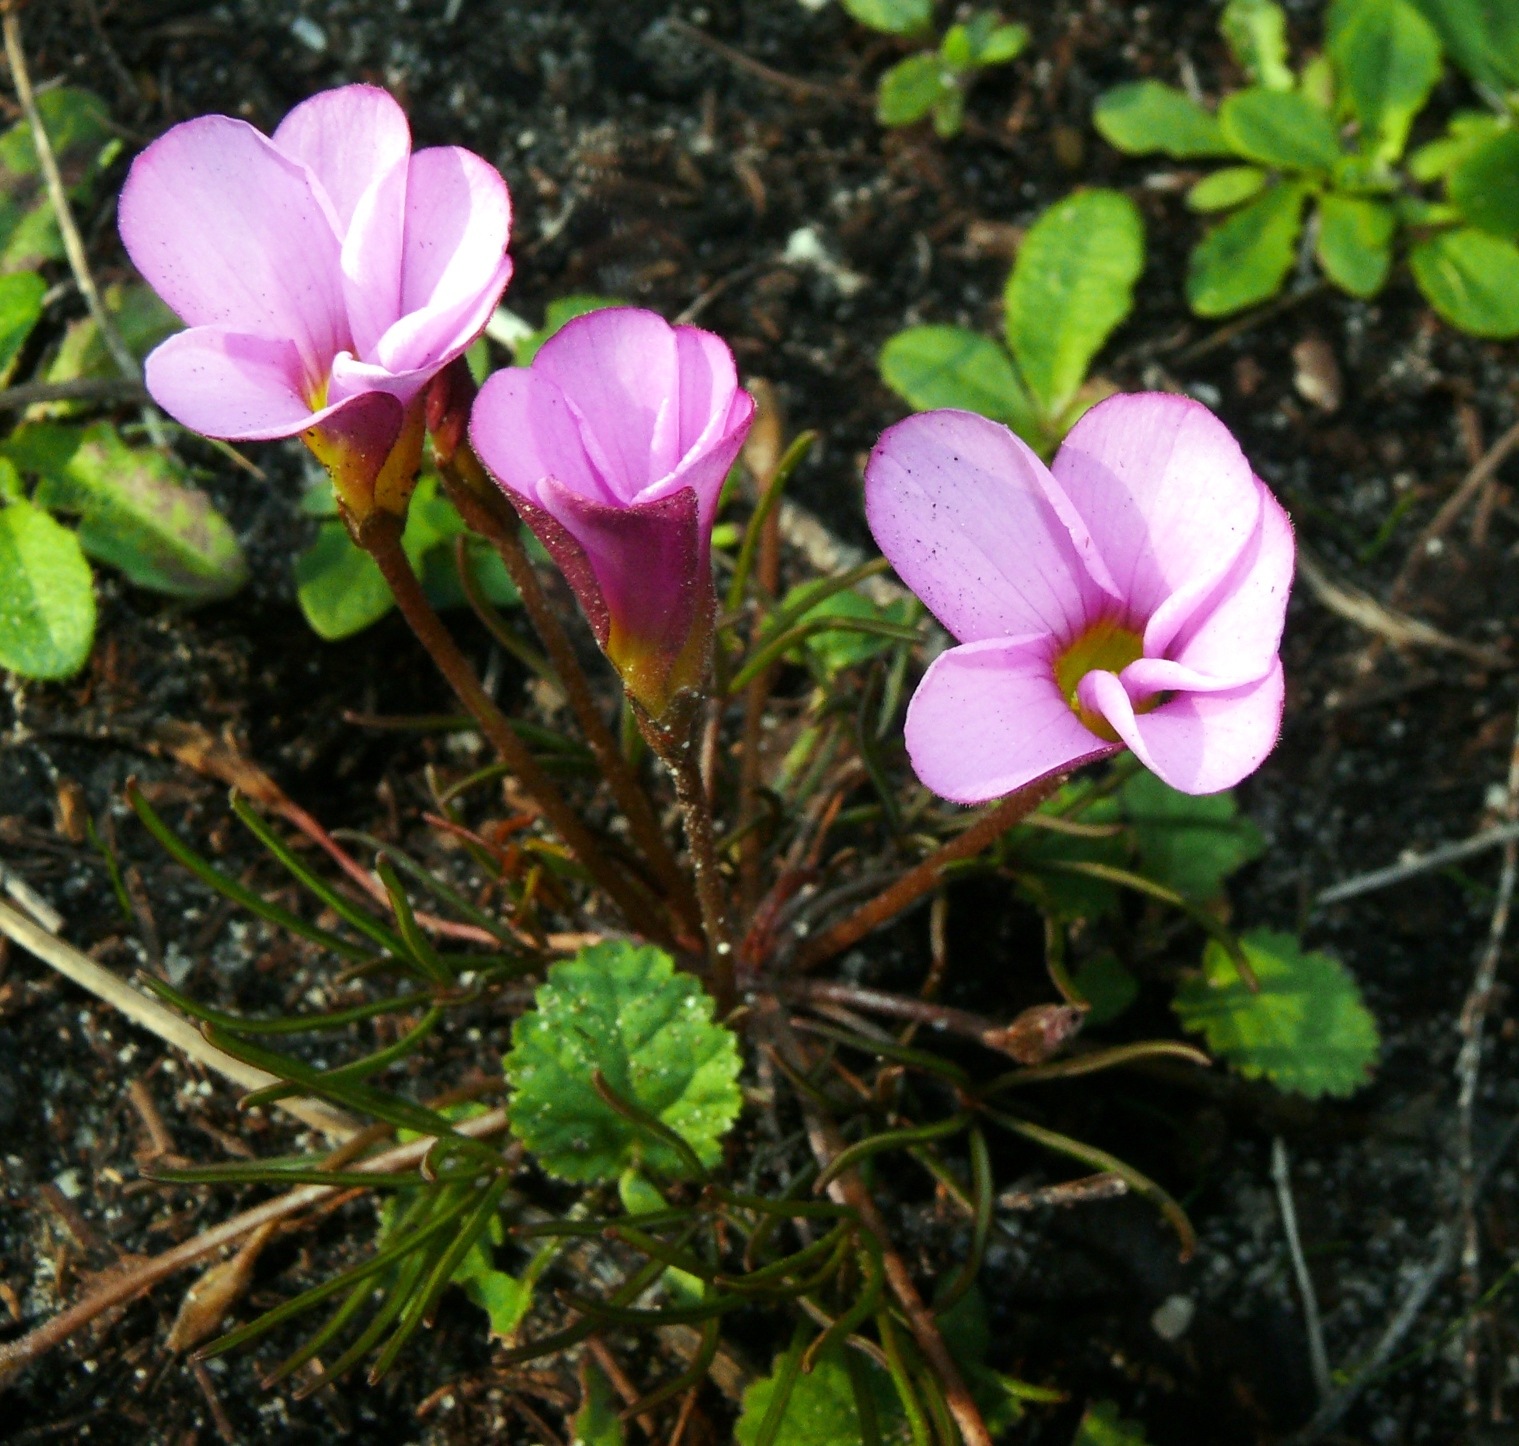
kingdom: Plantae
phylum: Tracheophyta
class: Magnoliopsida
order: Oxalidales
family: Oxalidaceae
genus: Oxalis
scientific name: Oxalis polyphylla
